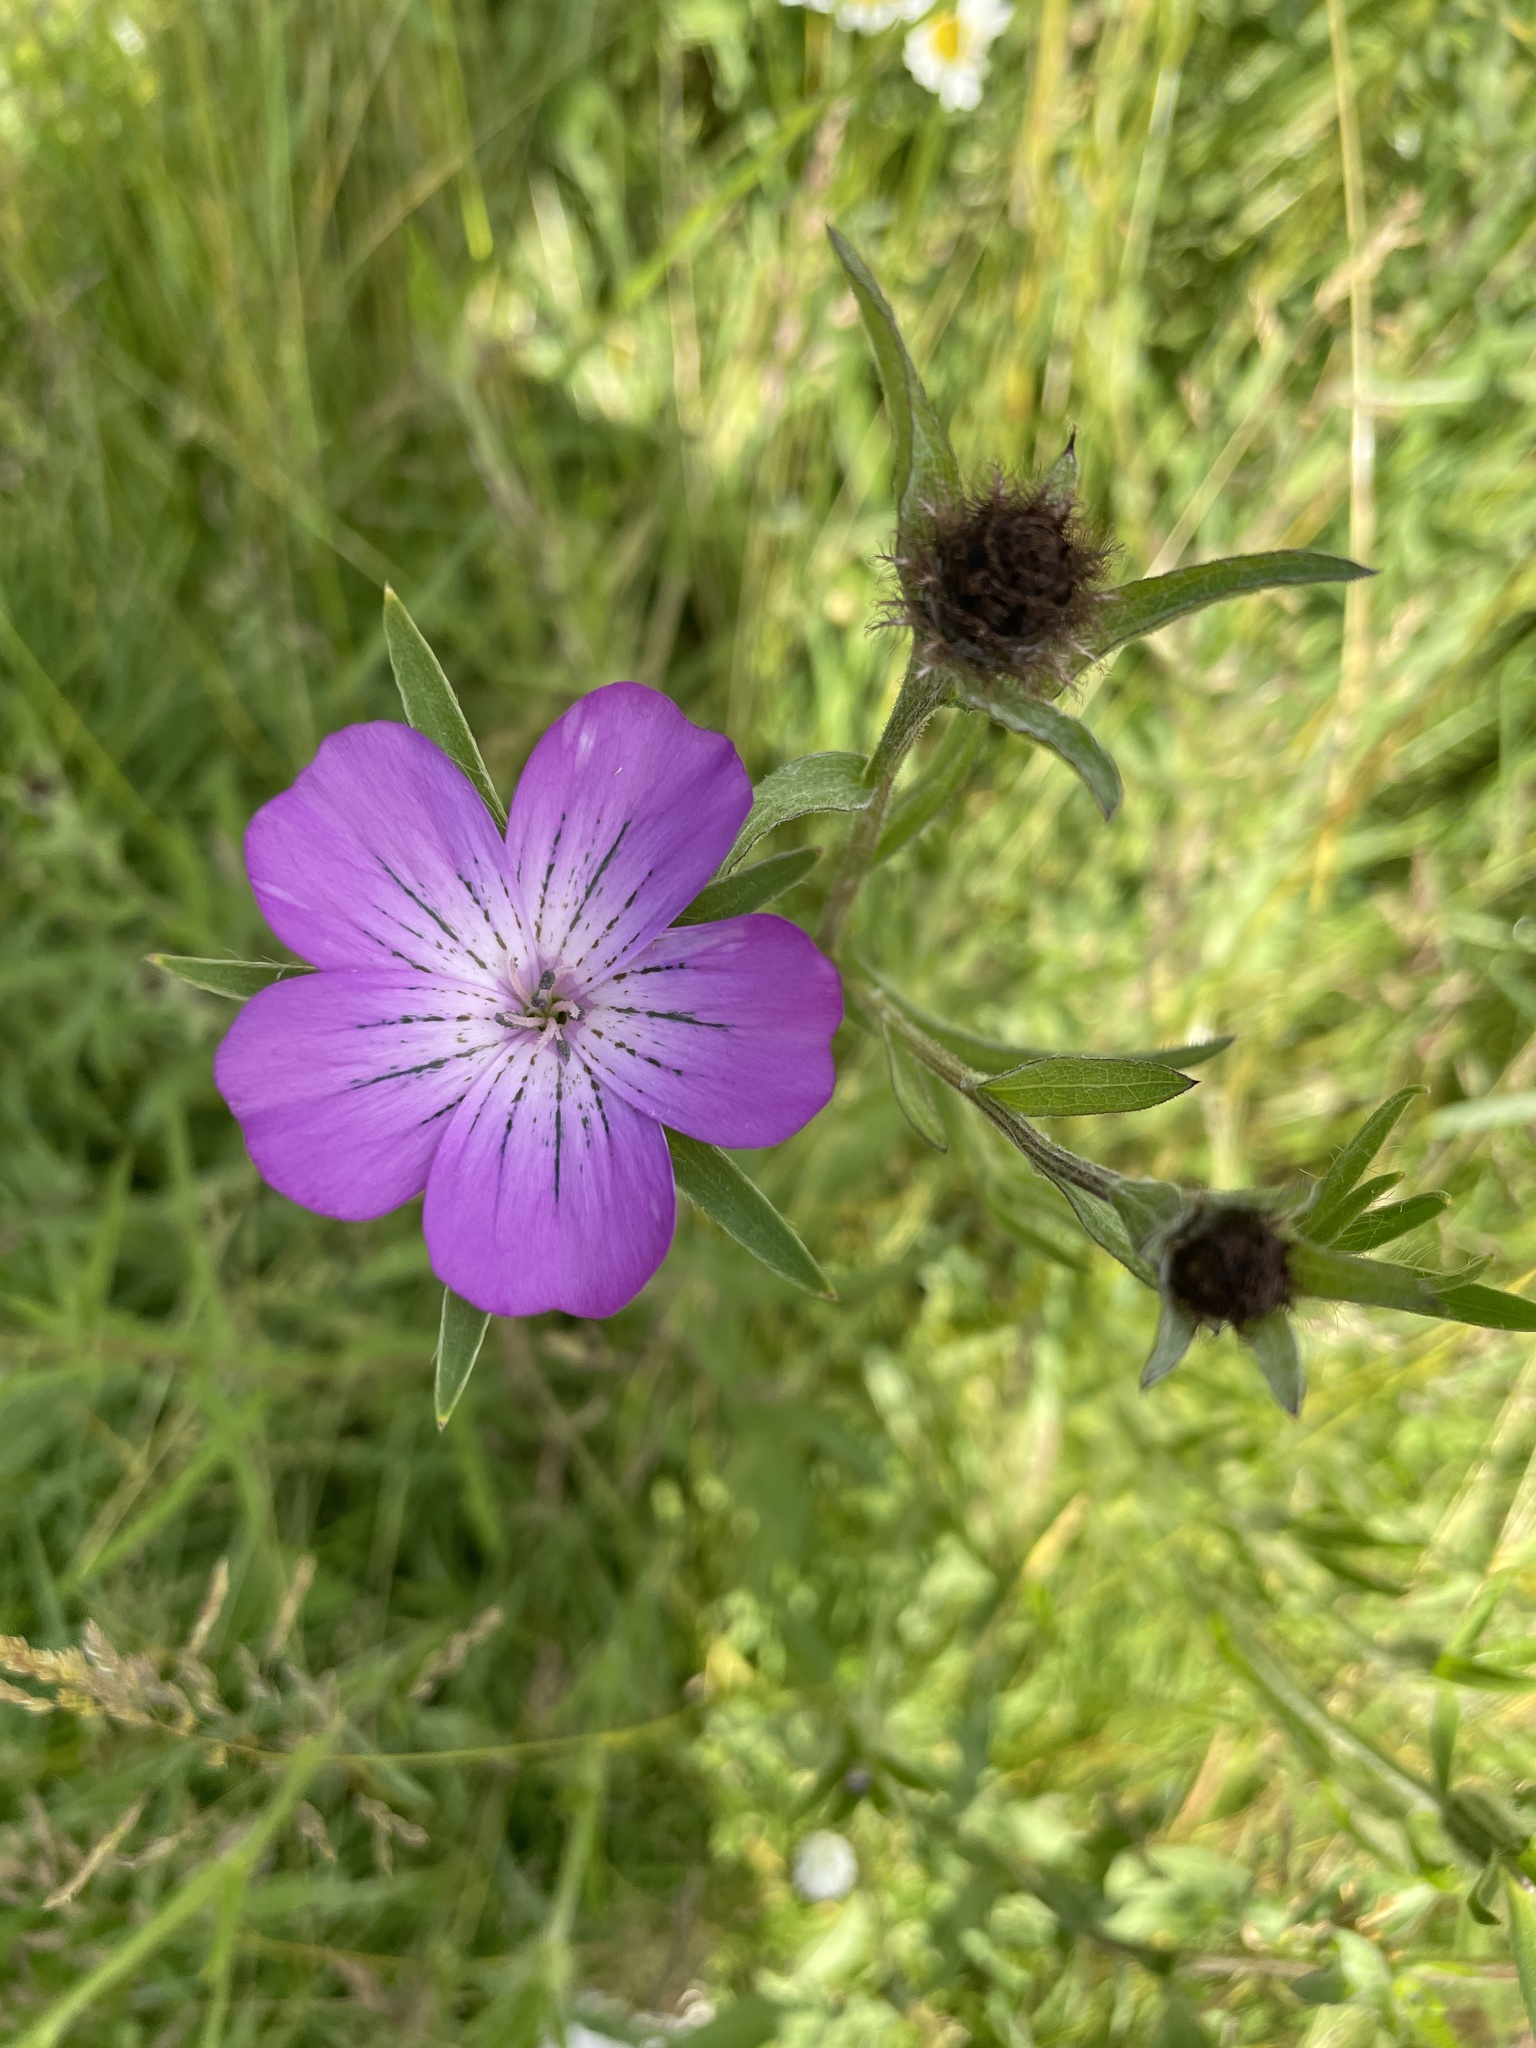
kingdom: Plantae
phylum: Tracheophyta
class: Magnoliopsida
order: Caryophyllales
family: Caryophyllaceae
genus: Agrostemma
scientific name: Agrostemma githago
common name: Common corncockle
